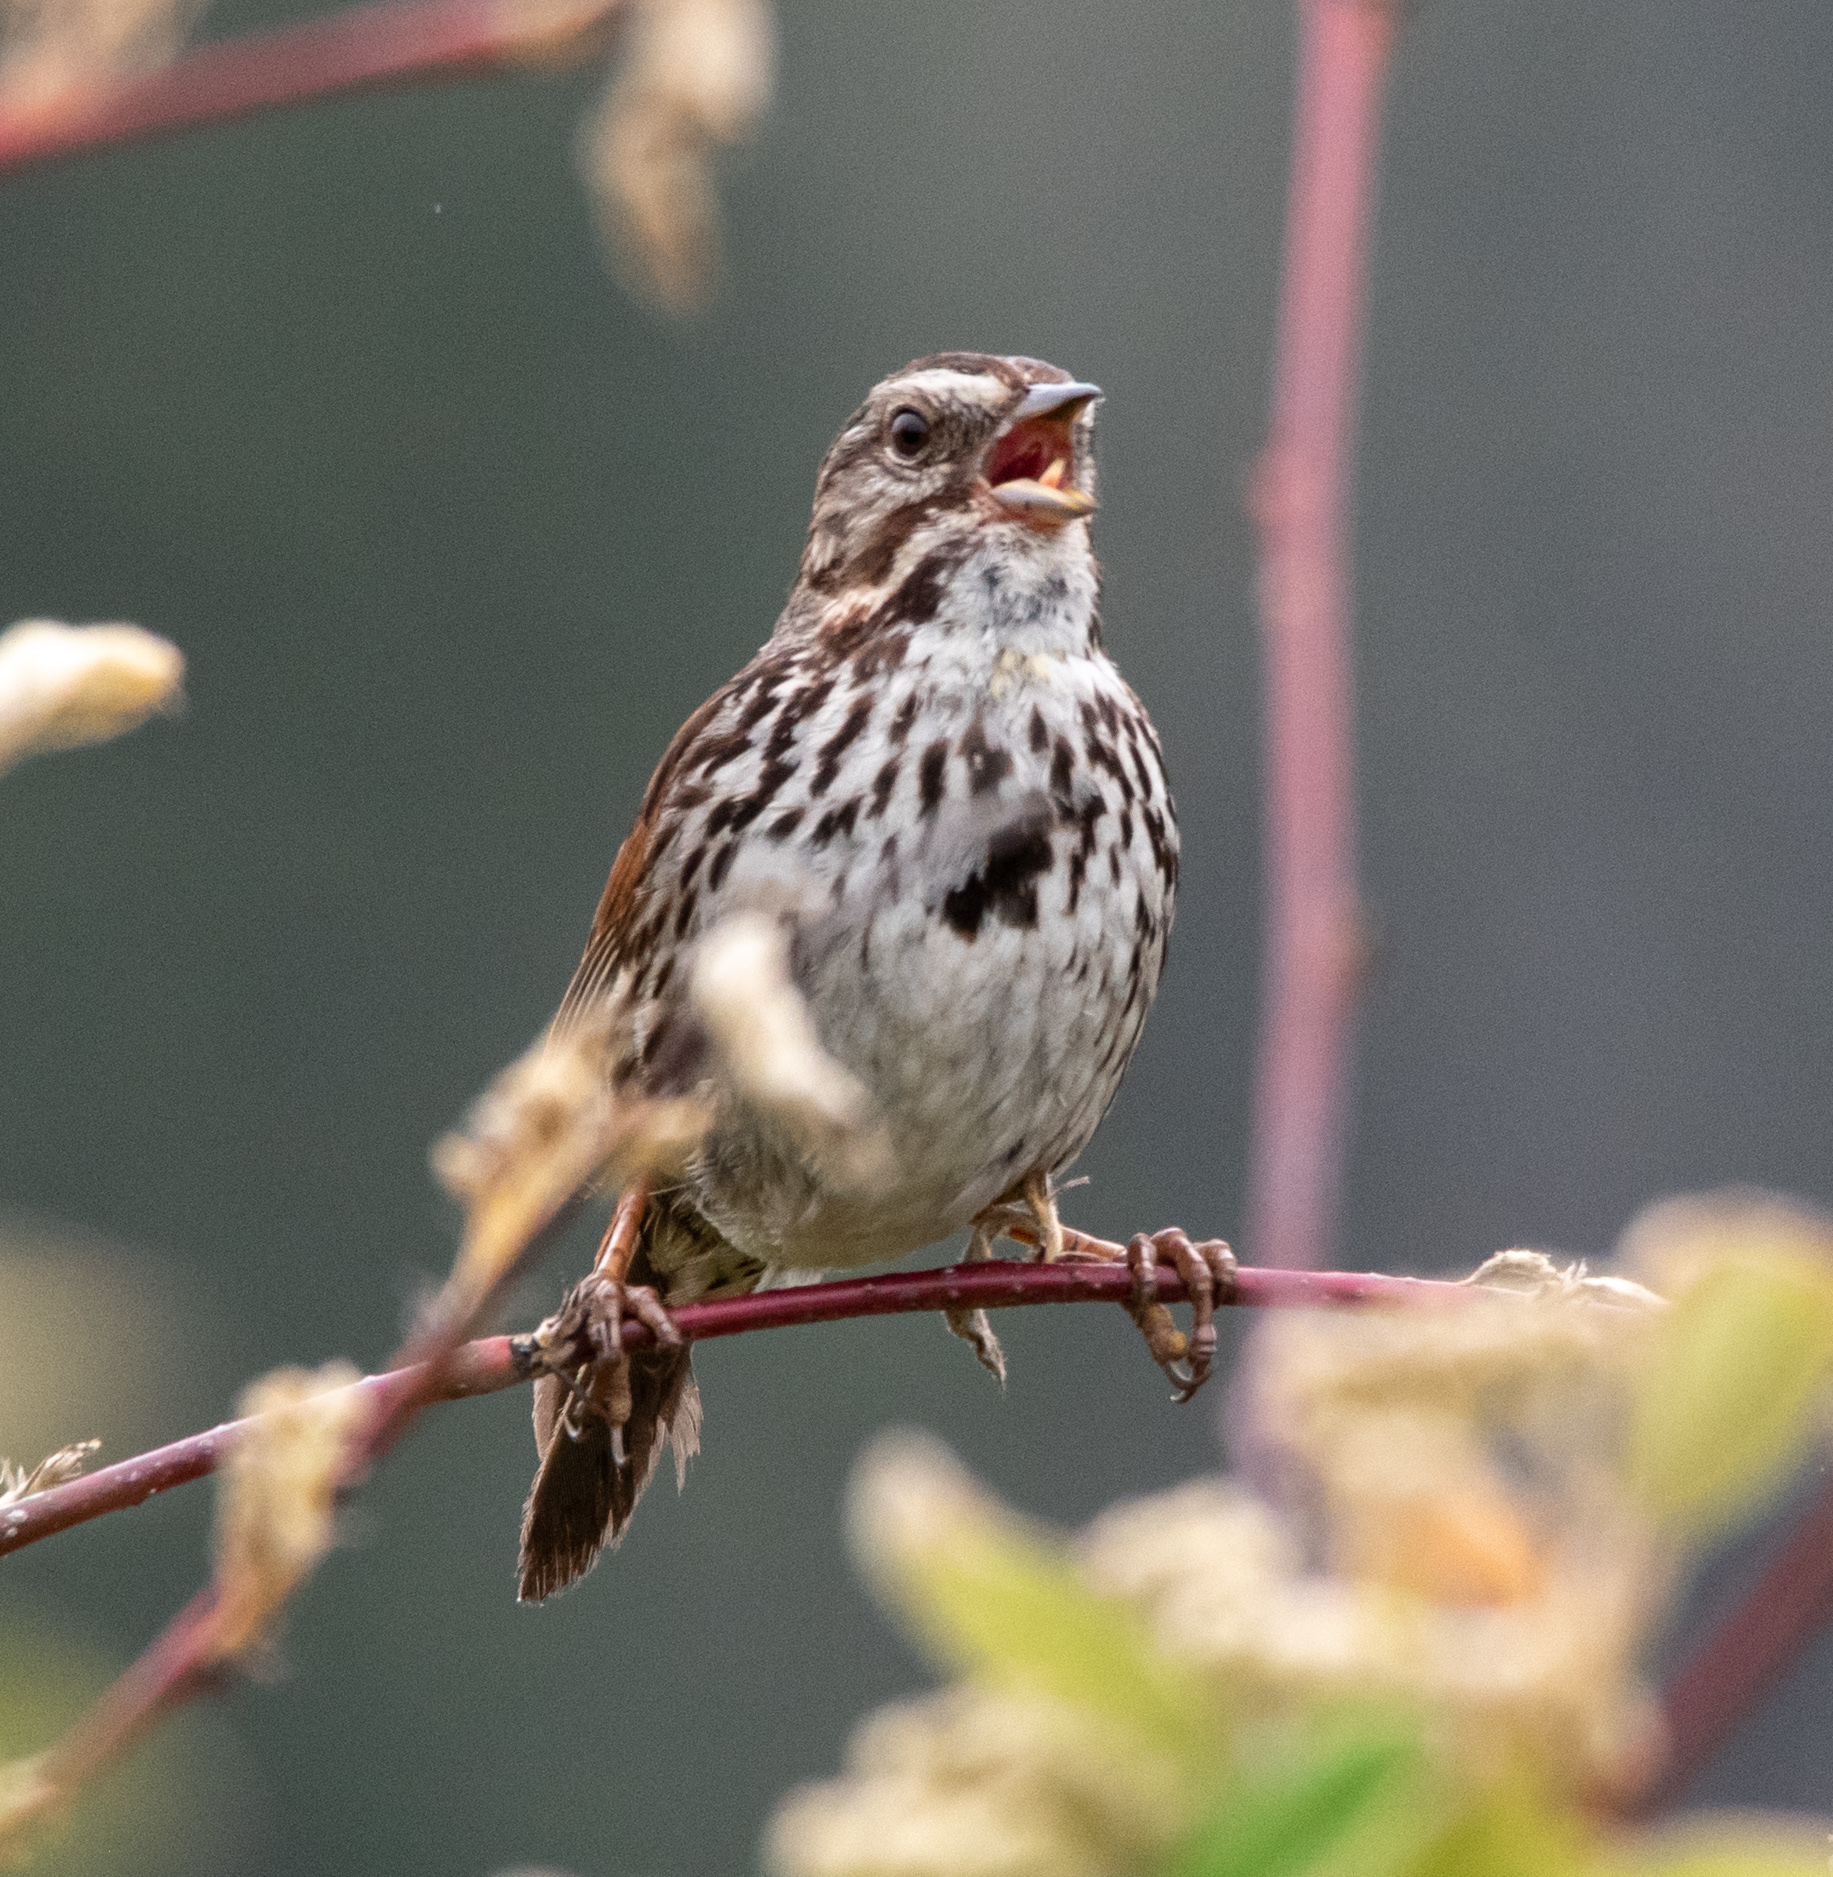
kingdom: Animalia
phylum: Chordata
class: Aves
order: Passeriformes
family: Passerellidae
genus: Melospiza
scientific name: Melospiza melodia
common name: Song sparrow
